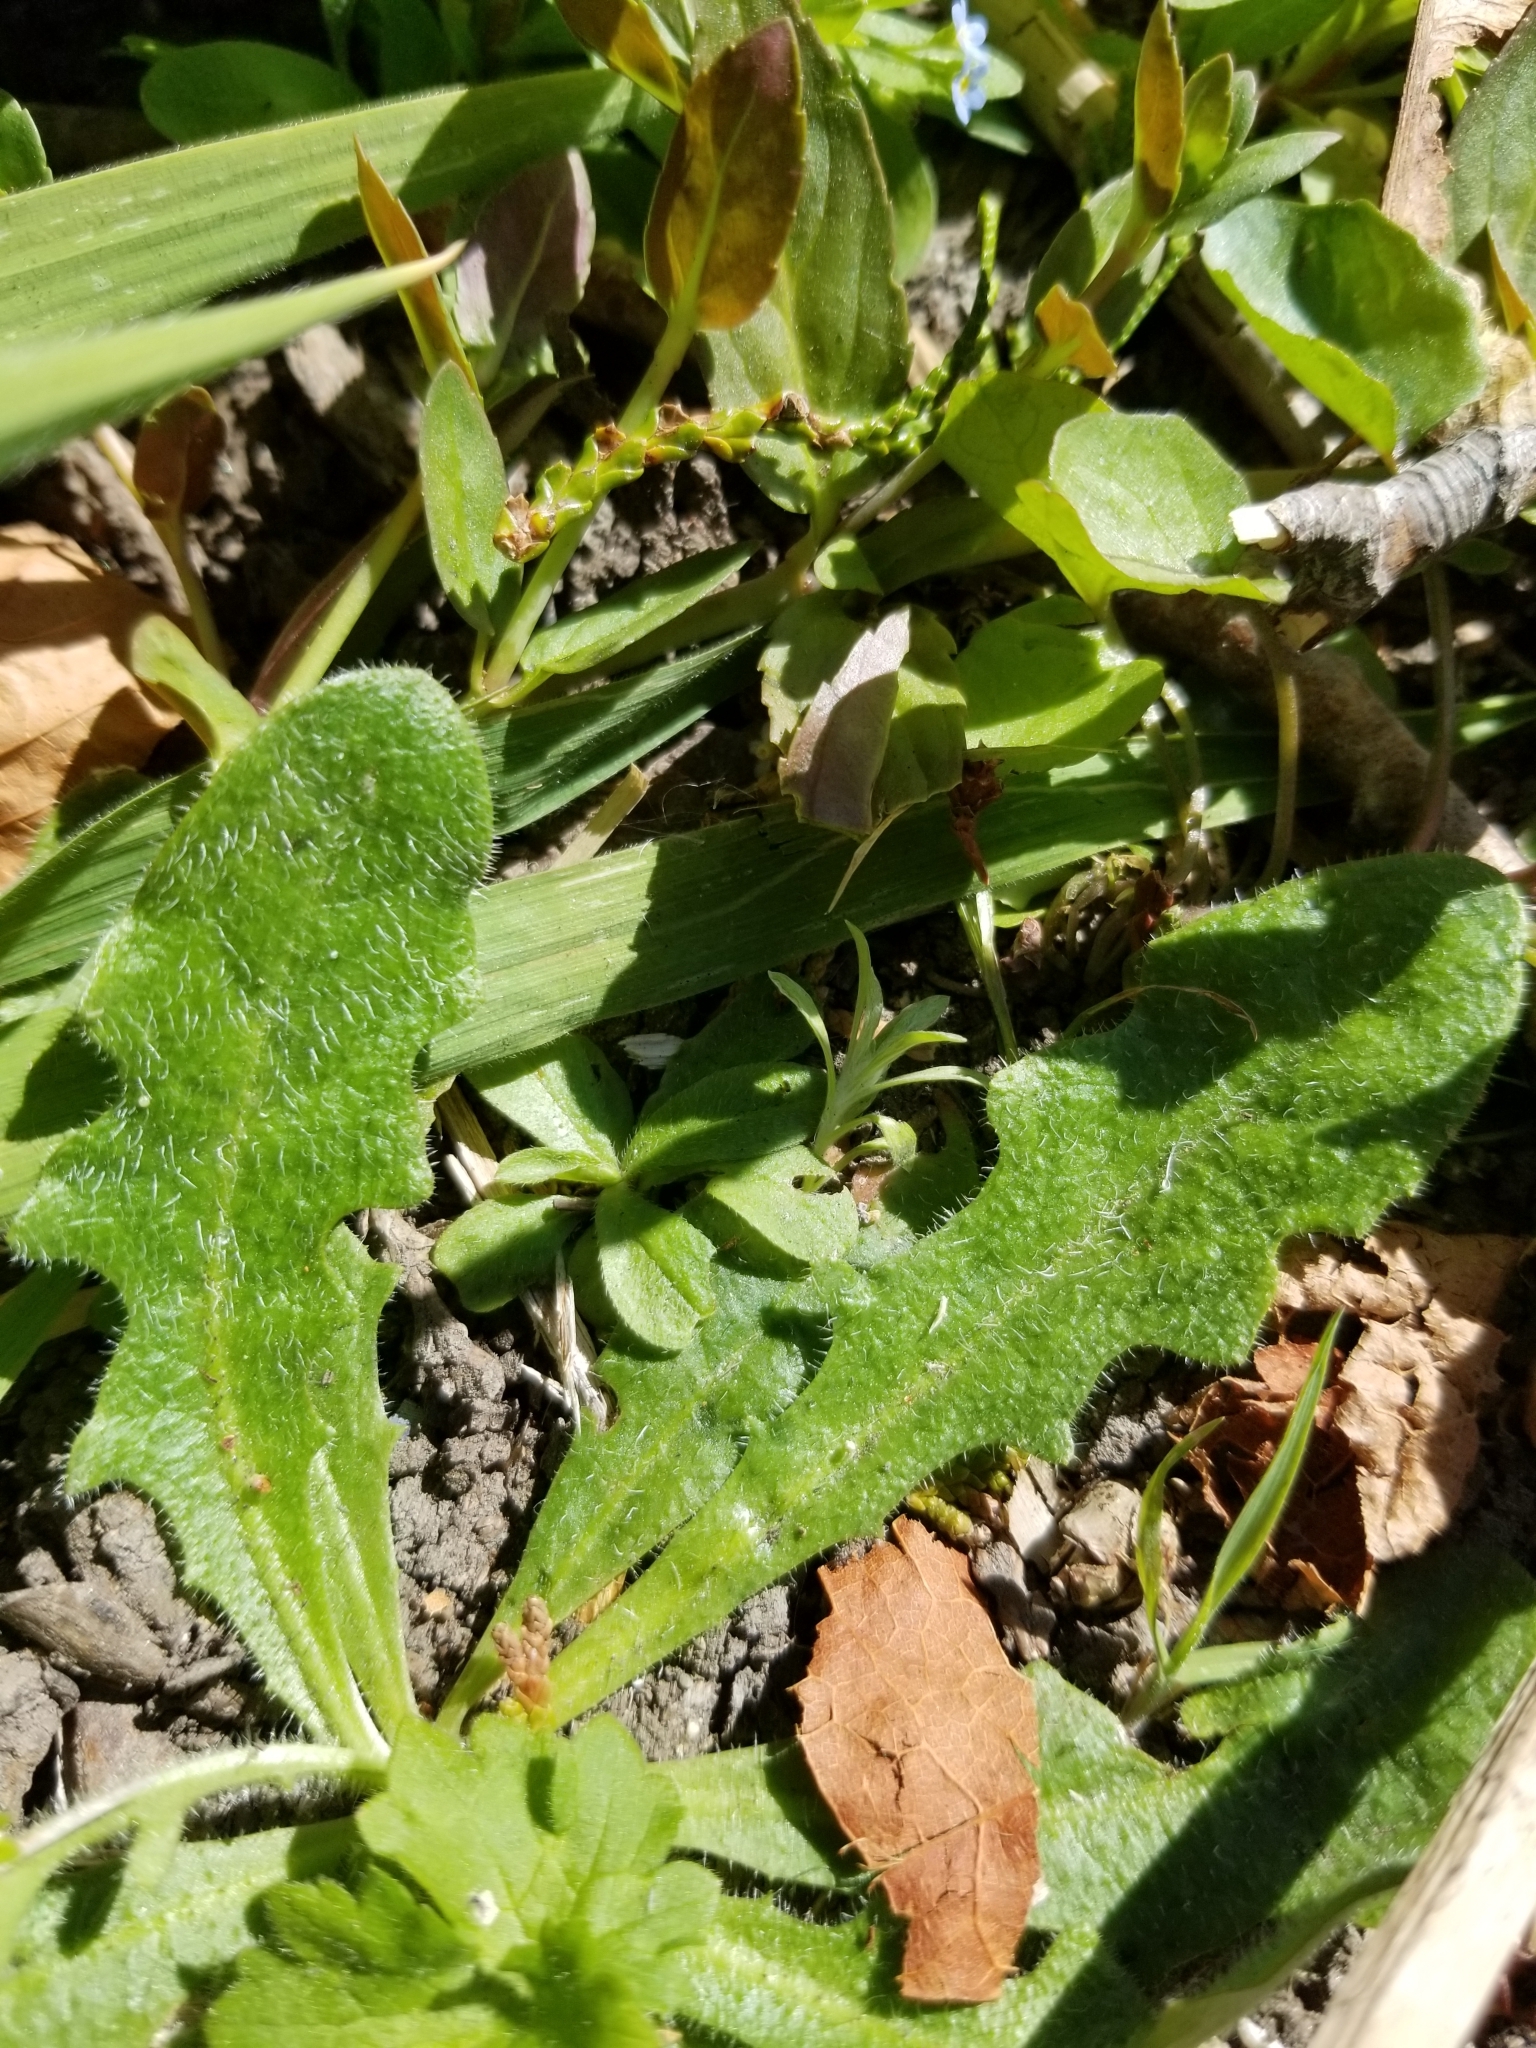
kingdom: Plantae
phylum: Tracheophyta
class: Magnoliopsida
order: Asterales
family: Asteraceae
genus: Hypochaeris
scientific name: Hypochaeris radicata
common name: Flatweed
